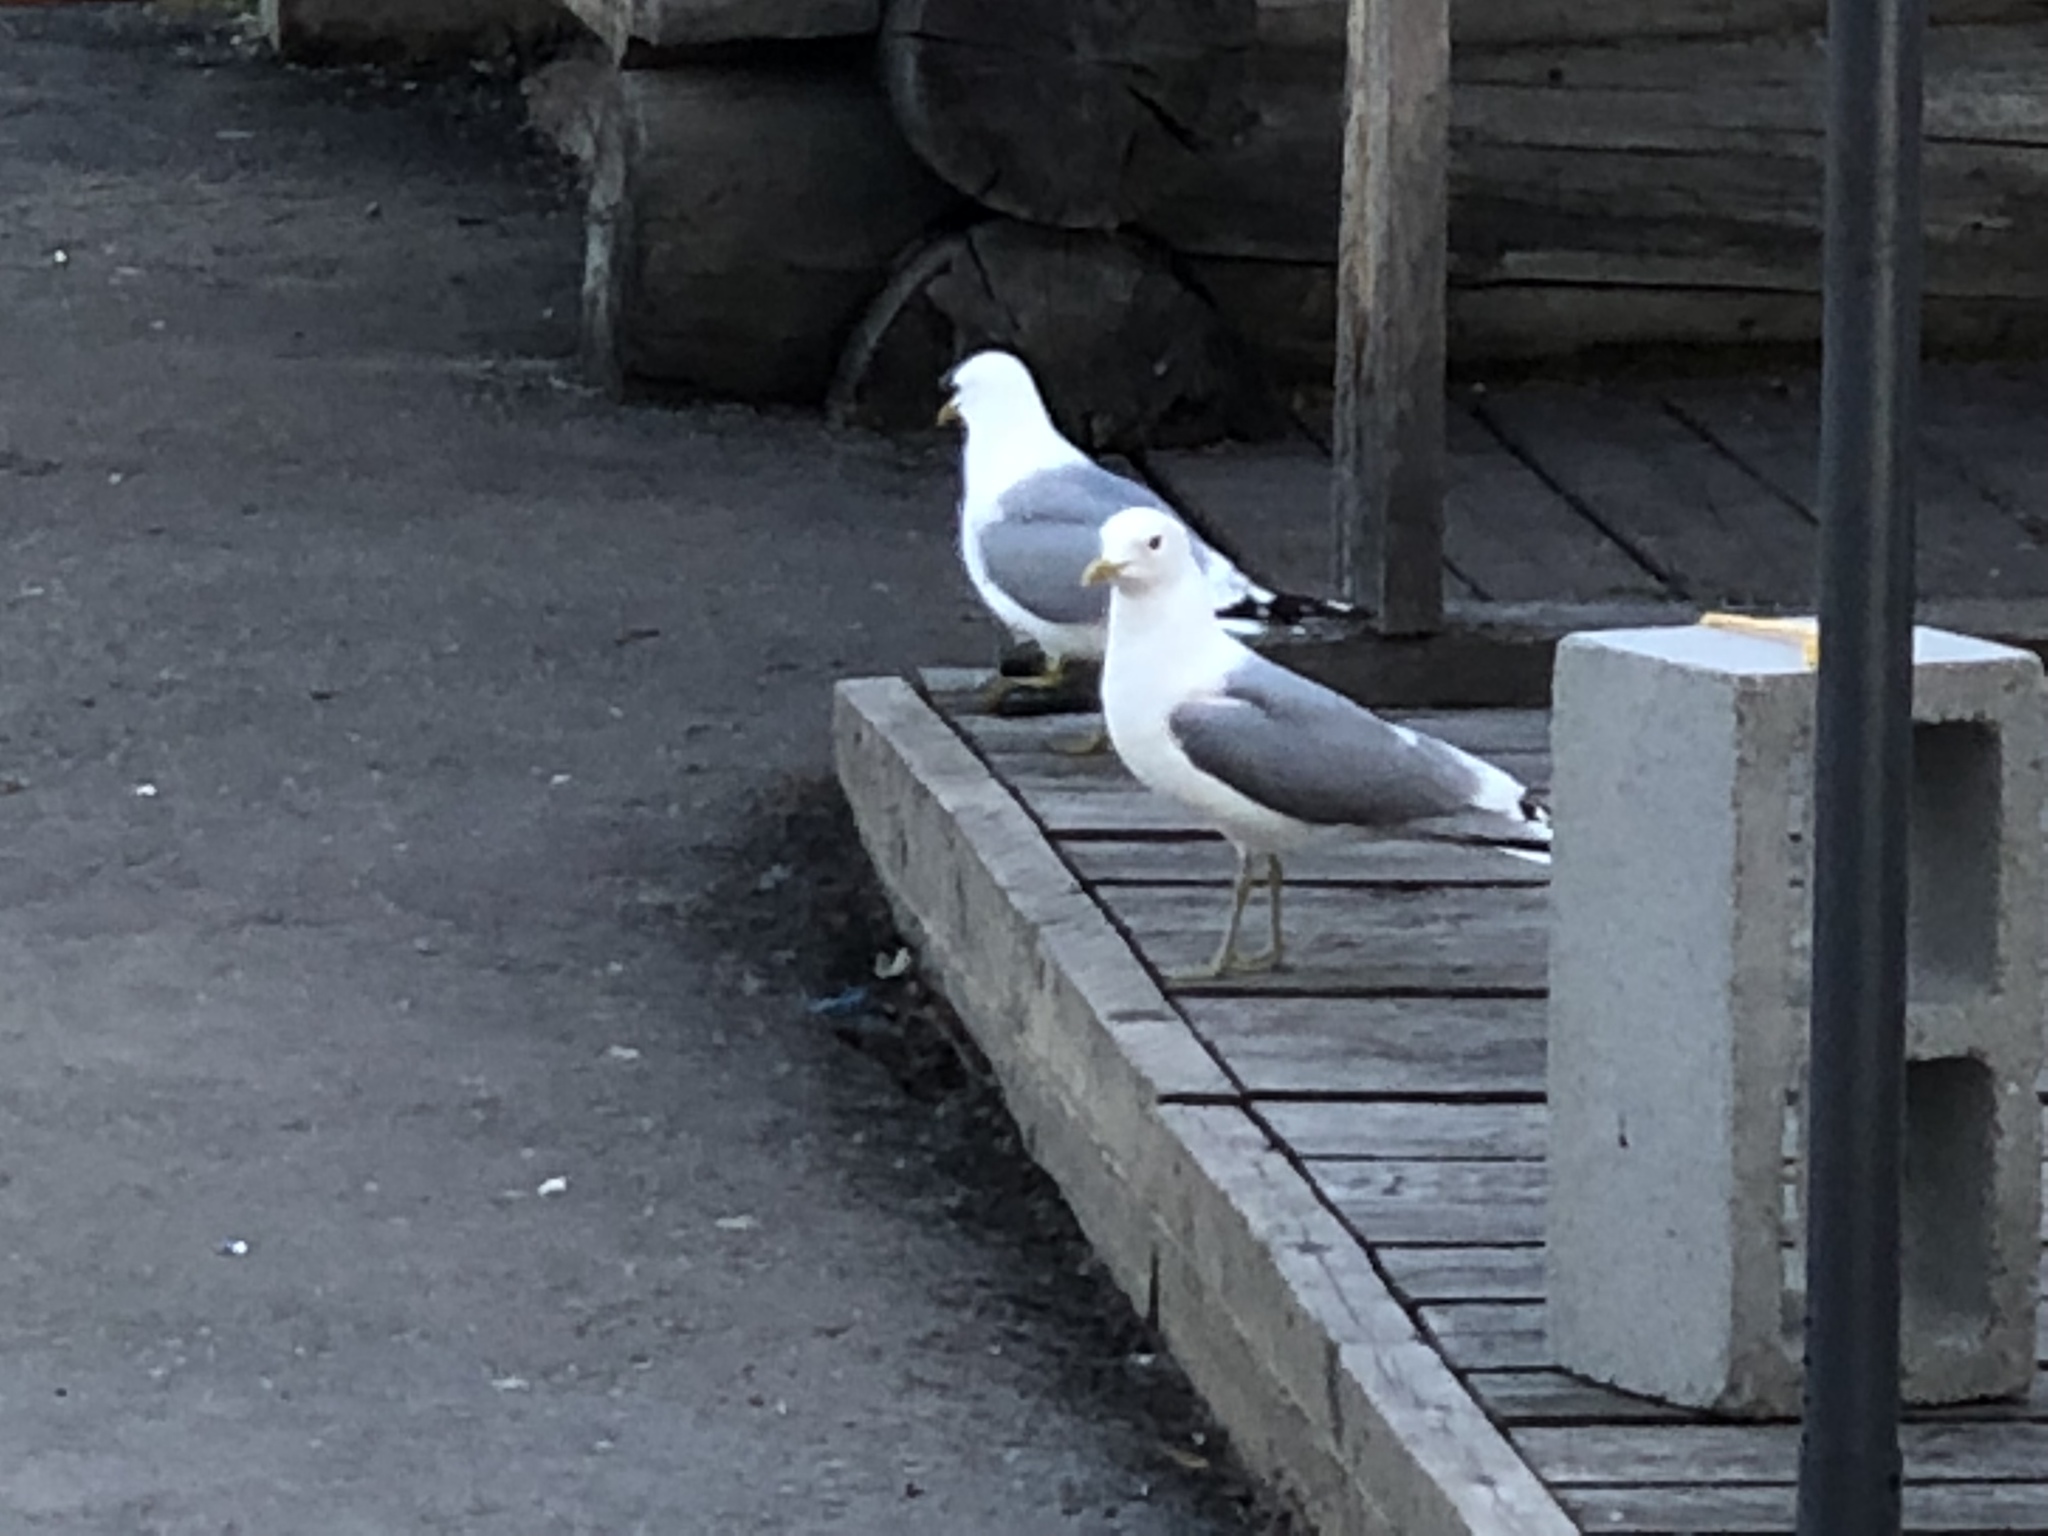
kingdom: Animalia
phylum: Chordata
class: Aves
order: Charadriiformes
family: Laridae
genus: Larus
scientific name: Larus brachyrhynchus
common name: Short-billed gull
